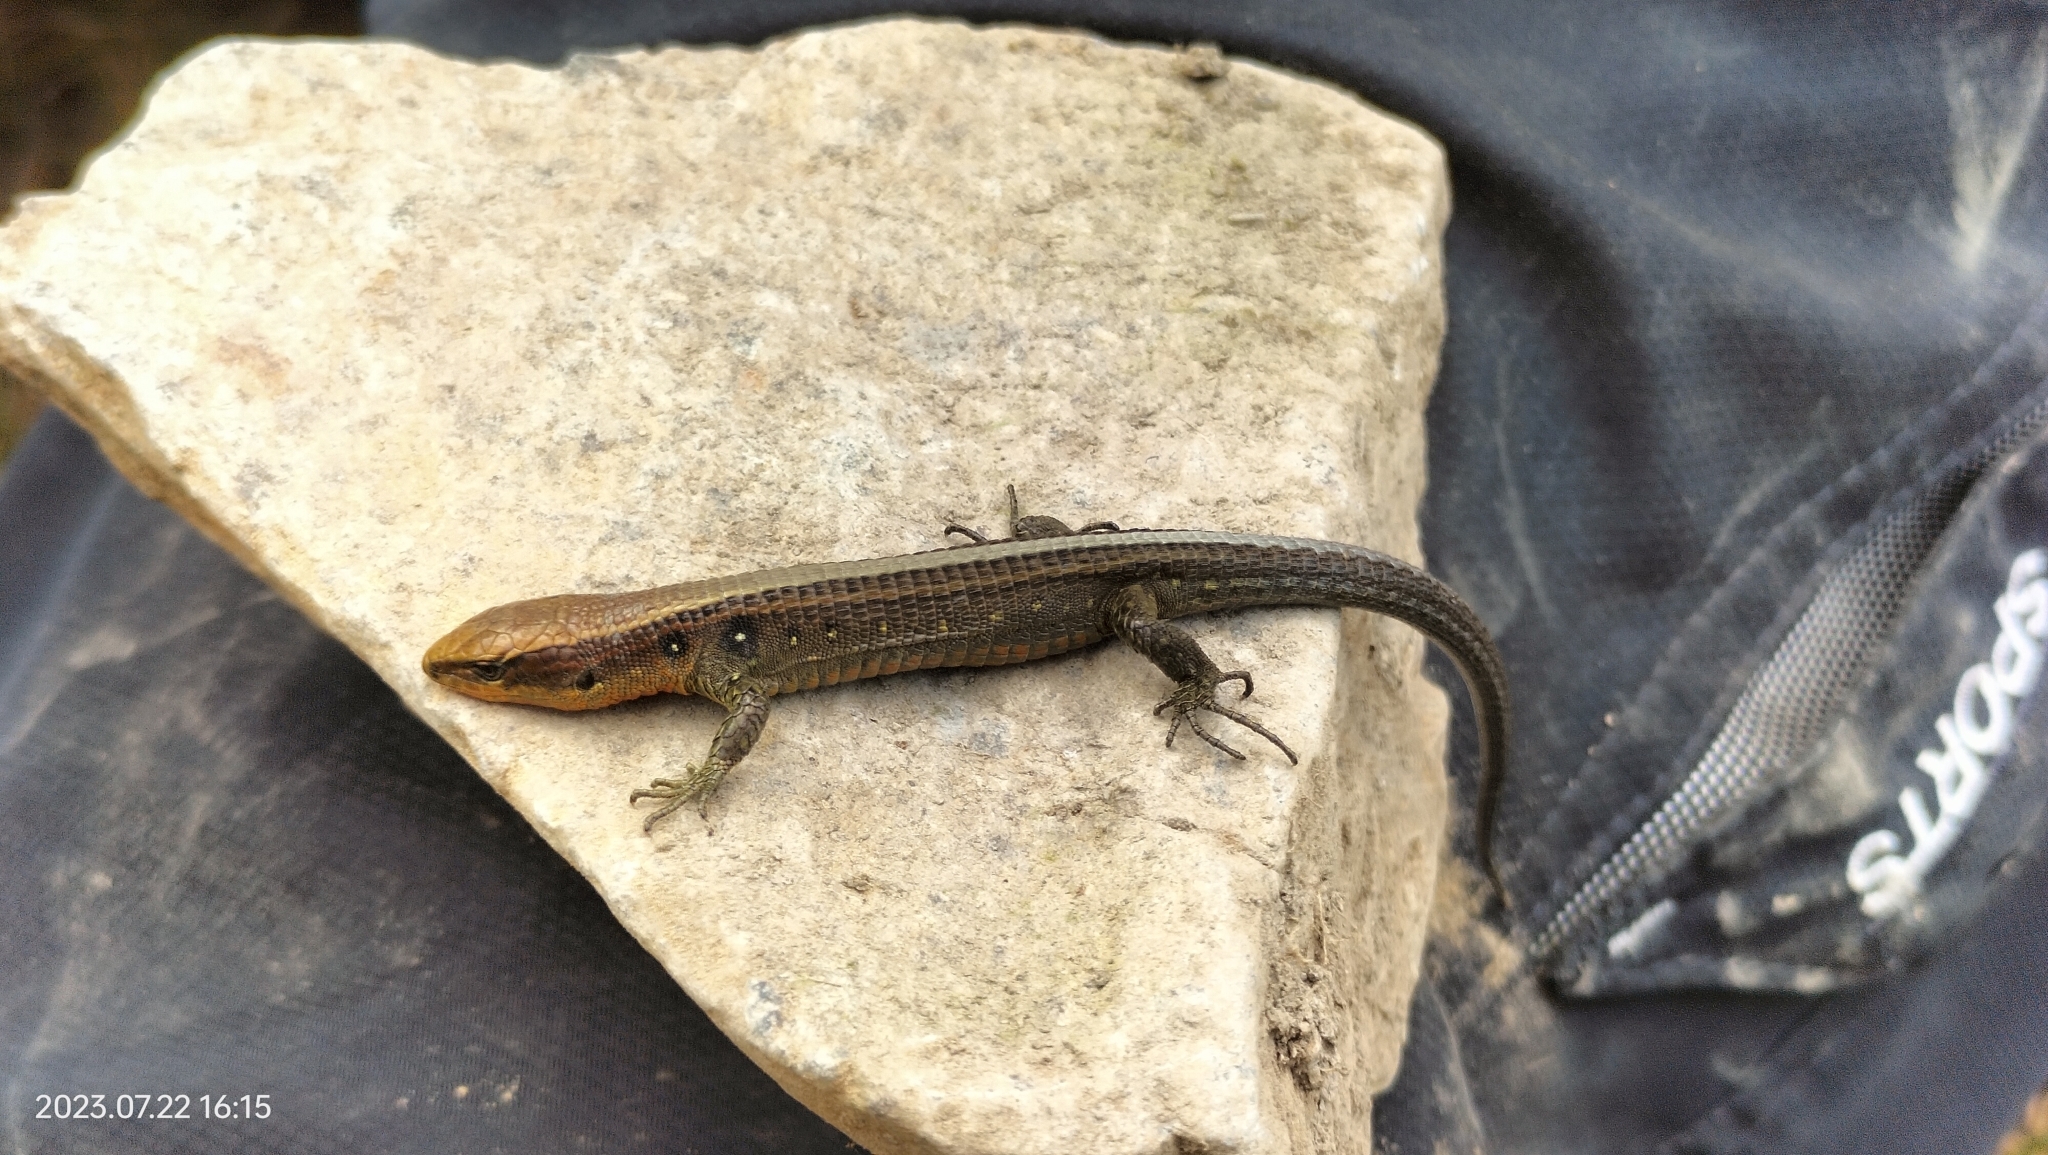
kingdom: Animalia
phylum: Chordata
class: Squamata
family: Gymnophthalmidae
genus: Proctoporus
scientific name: Proctoporus chasqui
